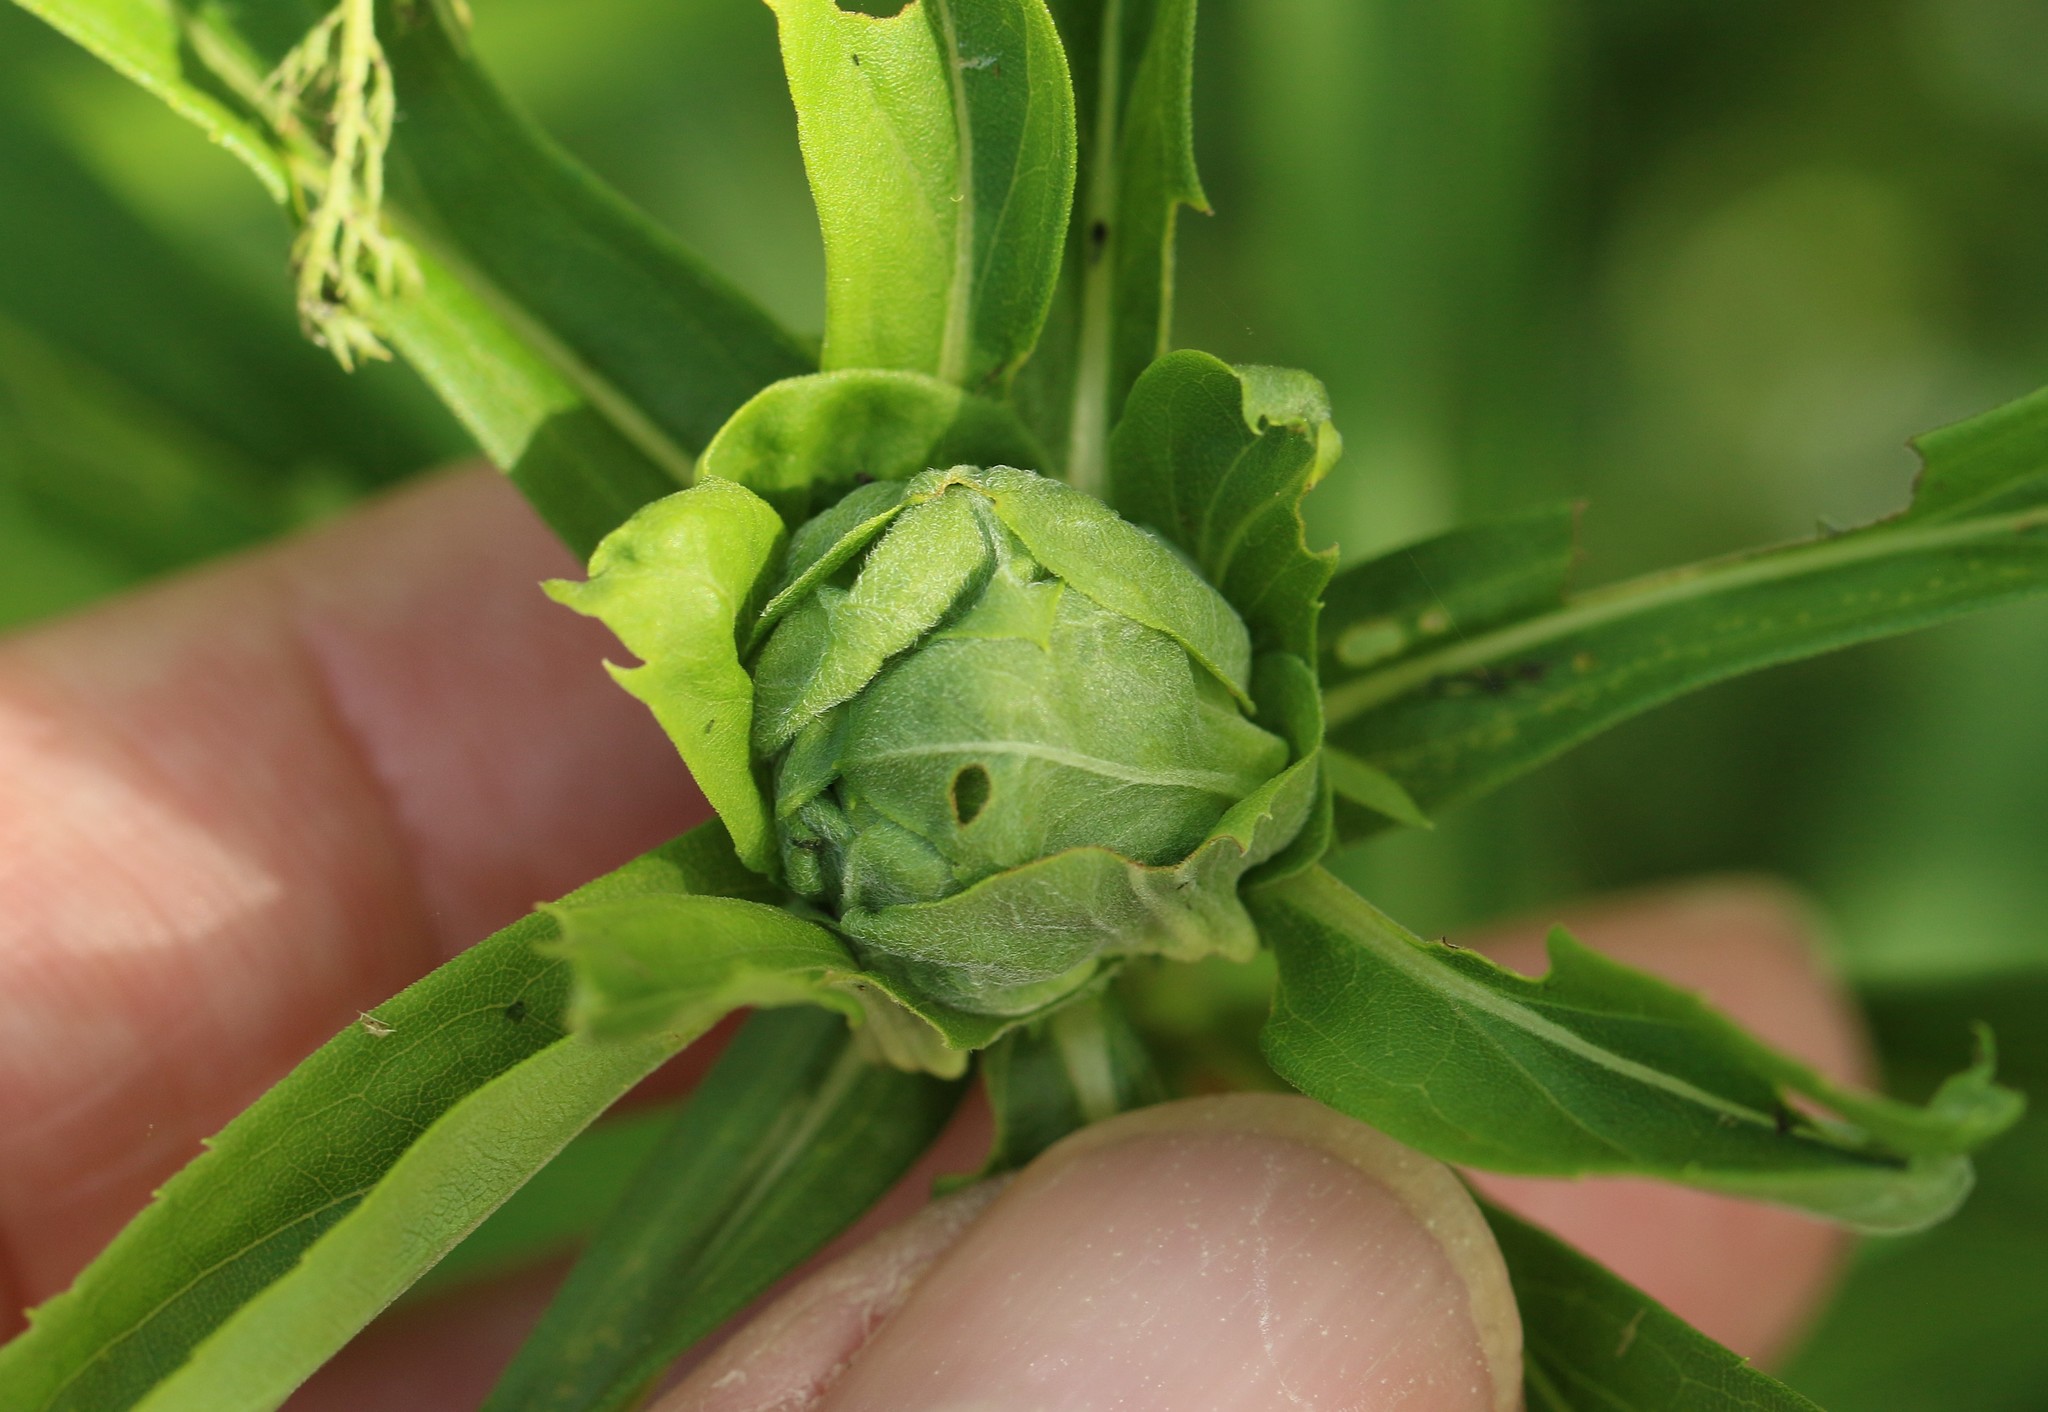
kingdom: Animalia
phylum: Arthropoda
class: Insecta
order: Diptera
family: Cecidomyiidae
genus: Rhopalomyia
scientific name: Rhopalomyia solidaginis
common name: Goldenrod bunch gall midge
